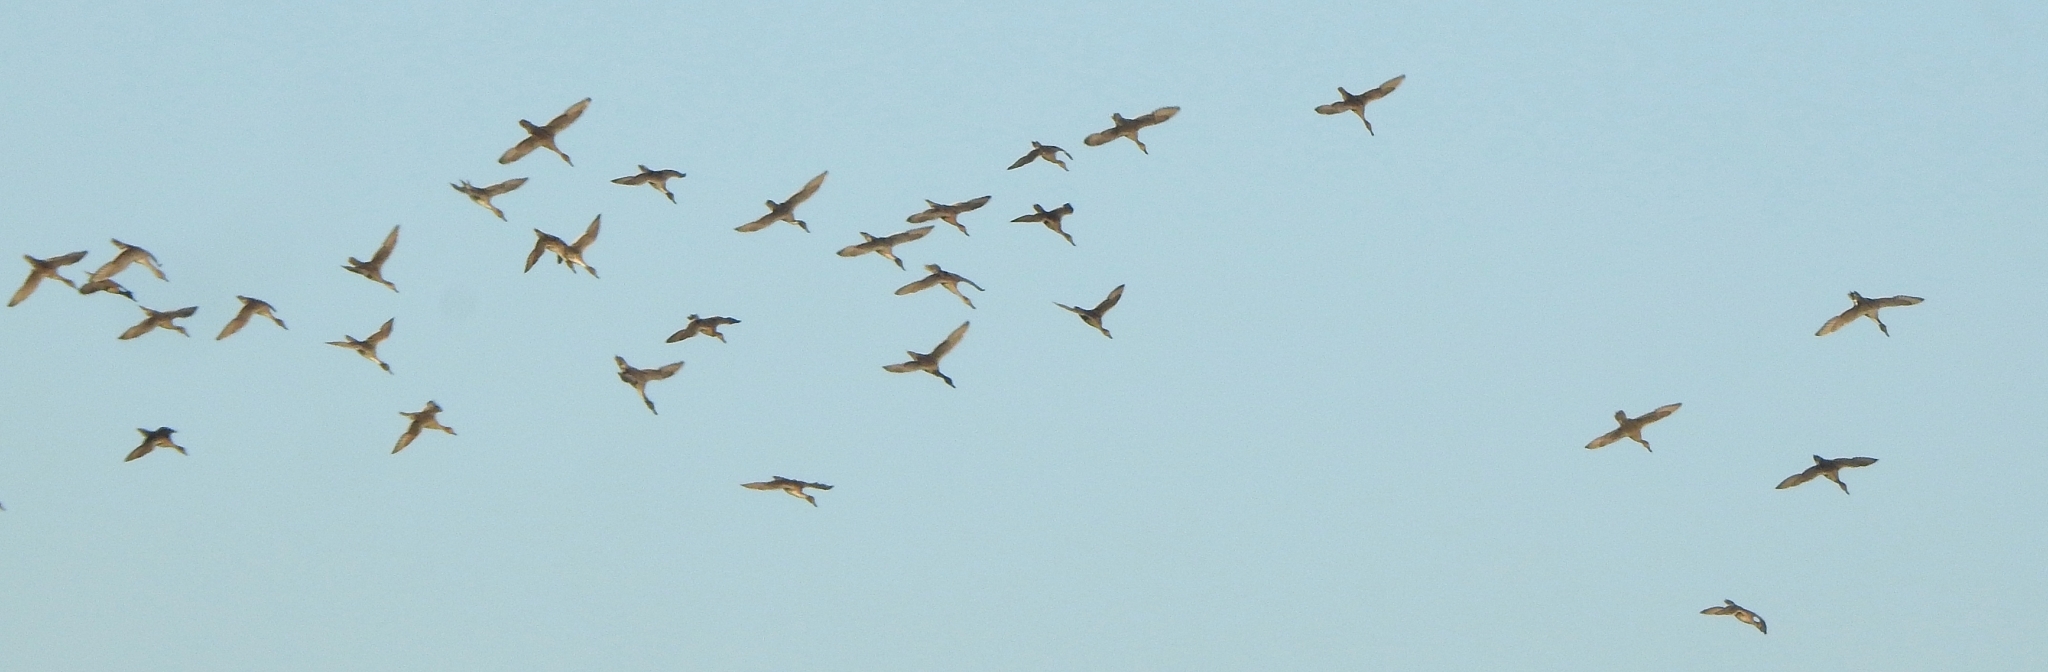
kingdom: Animalia
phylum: Chordata
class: Aves
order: Anseriformes
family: Anatidae
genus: Anas
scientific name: Anas acuta
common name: Northern pintail
